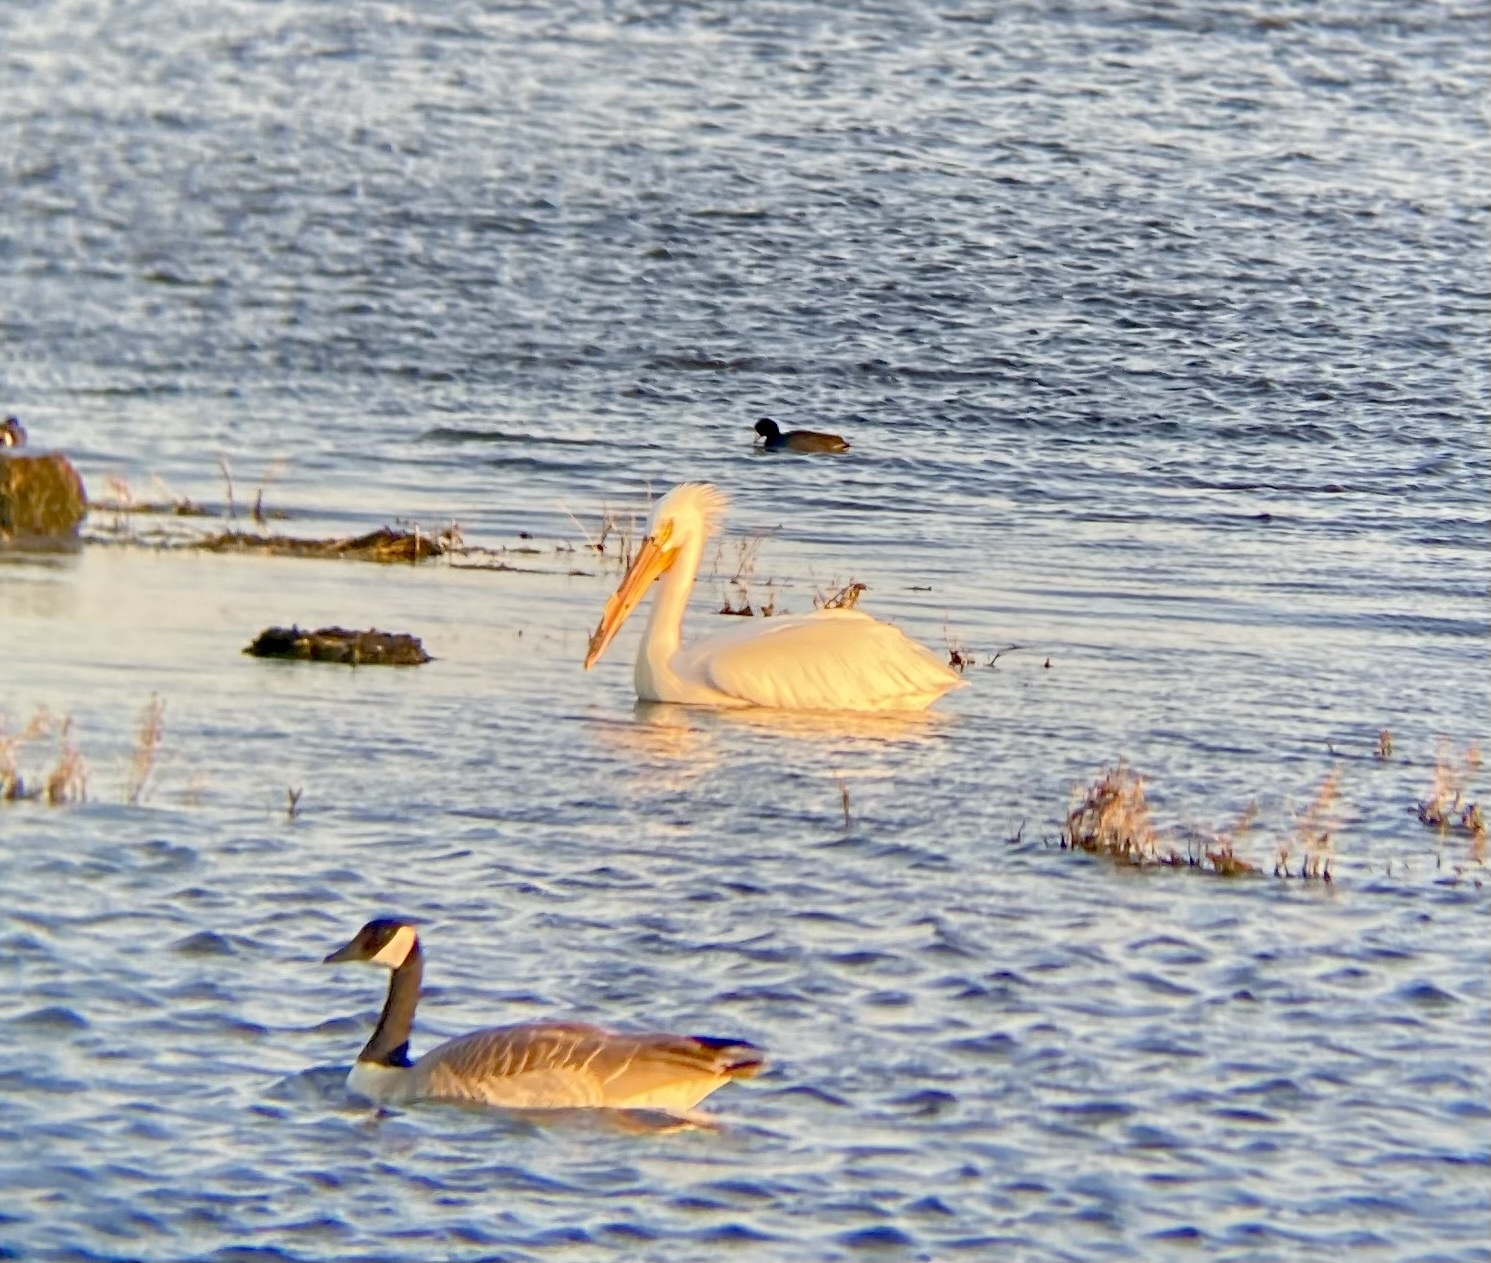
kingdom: Animalia
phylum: Chordata
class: Aves
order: Pelecaniformes
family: Pelecanidae
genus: Pelecanus
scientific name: Pelecanus erythrorhynchos
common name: American white pelican
